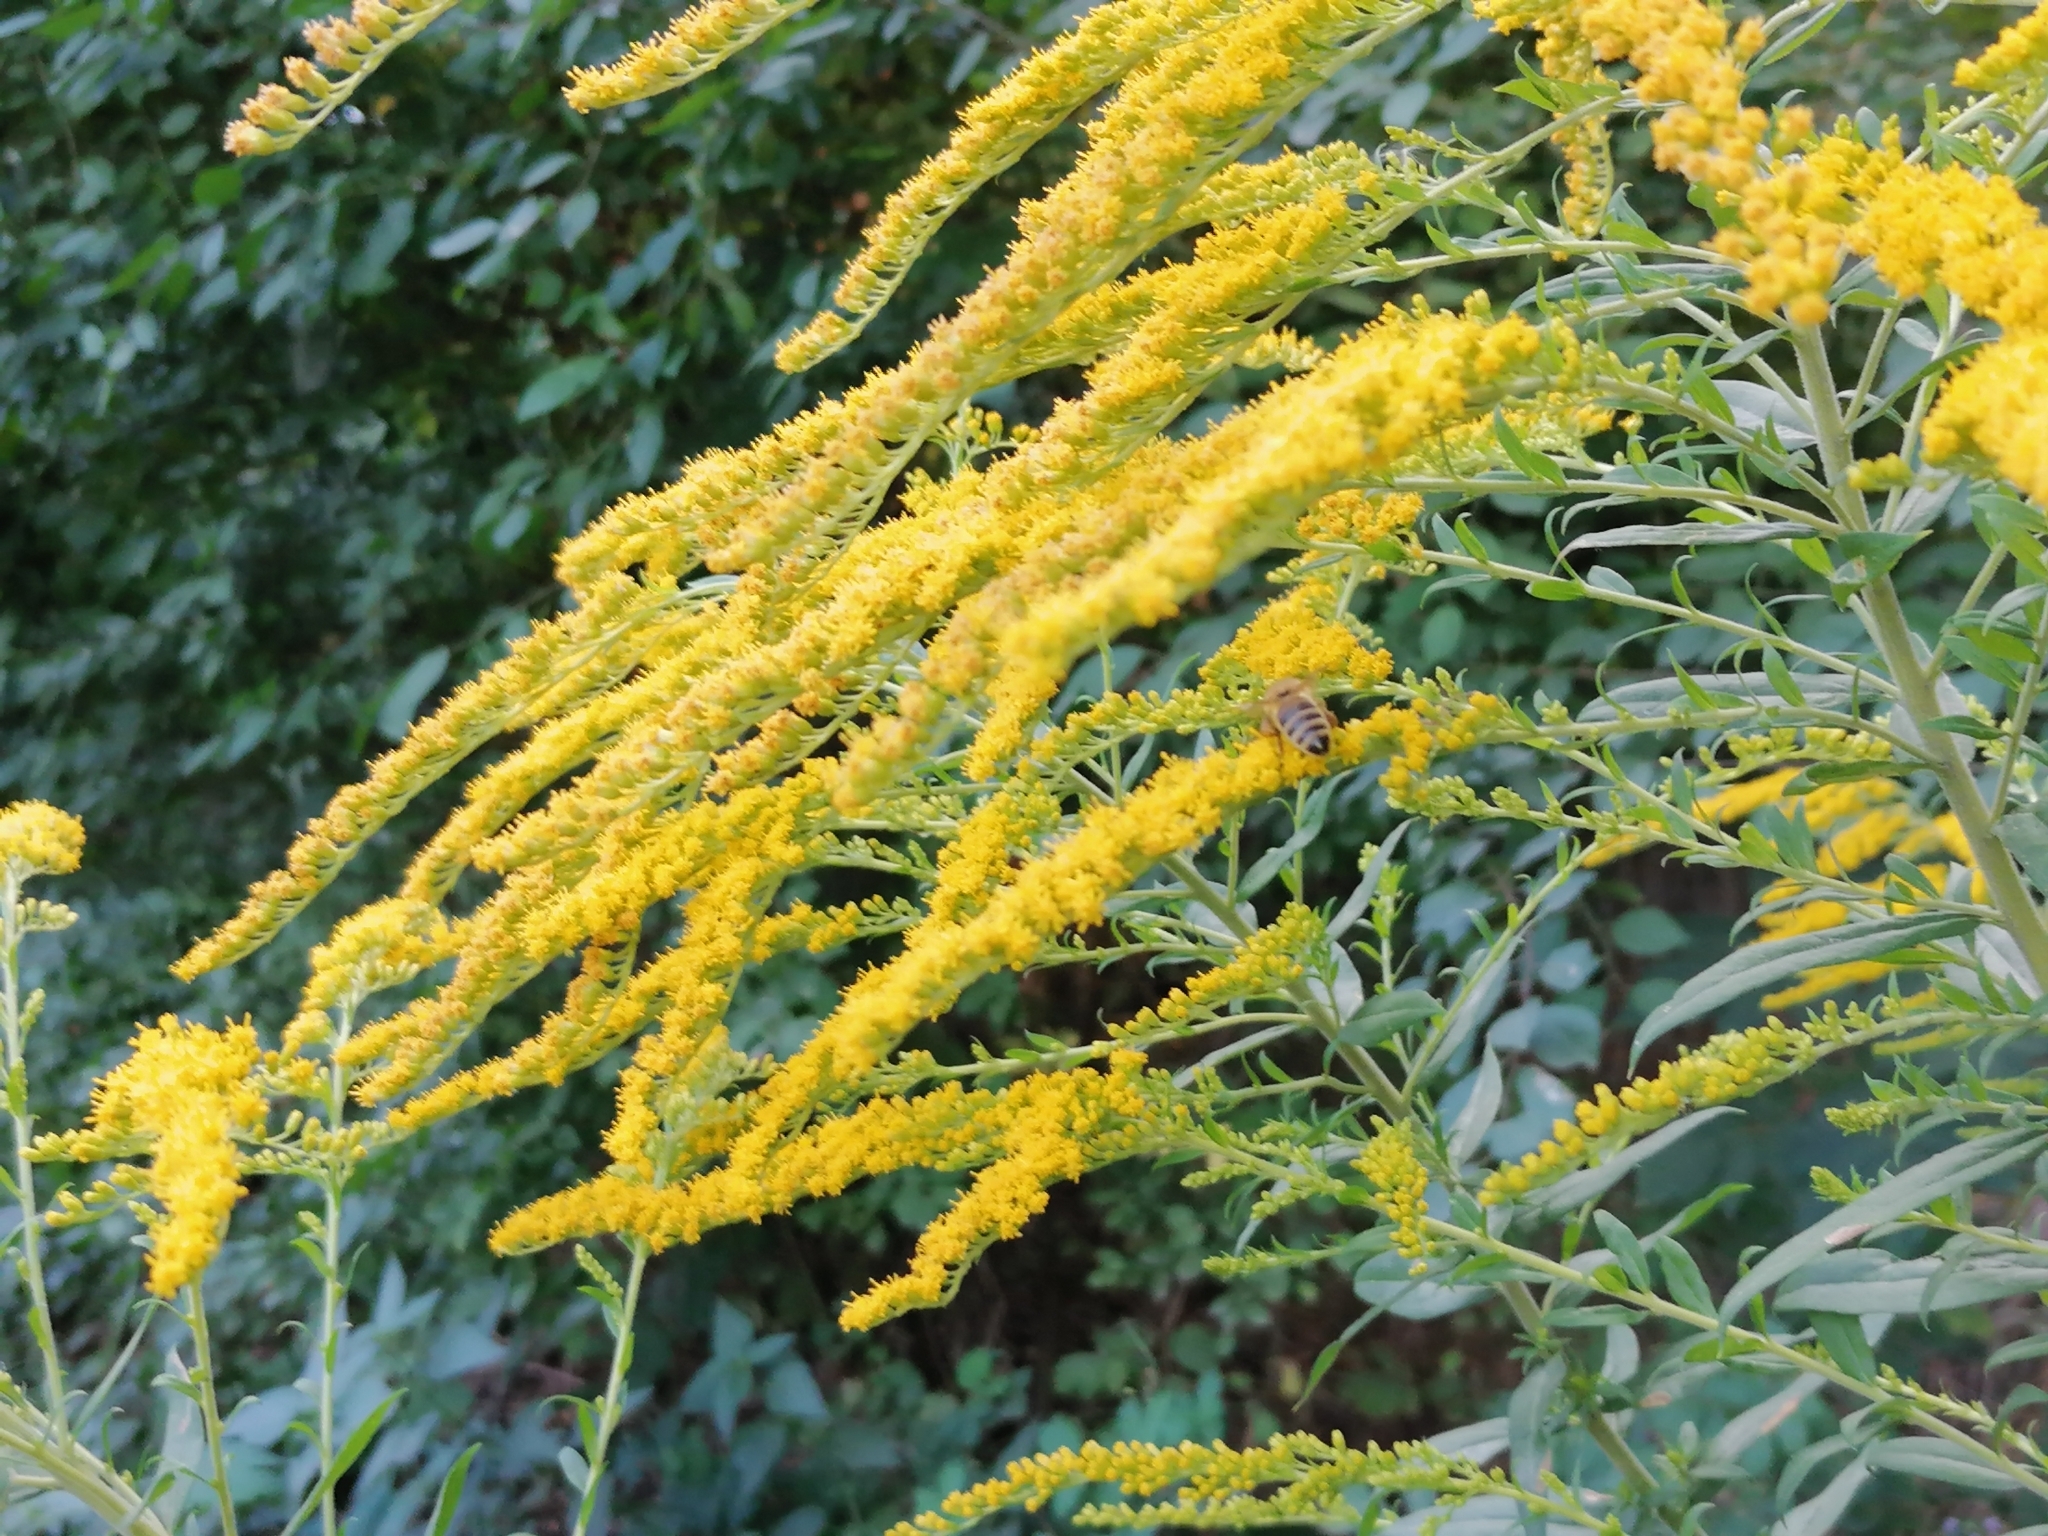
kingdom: Plantae
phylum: Tracheophyta
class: Magnoliopsida
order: Asterales
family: Asteraceae
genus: Solidago
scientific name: Solidago altissima
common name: Late goldenrod
